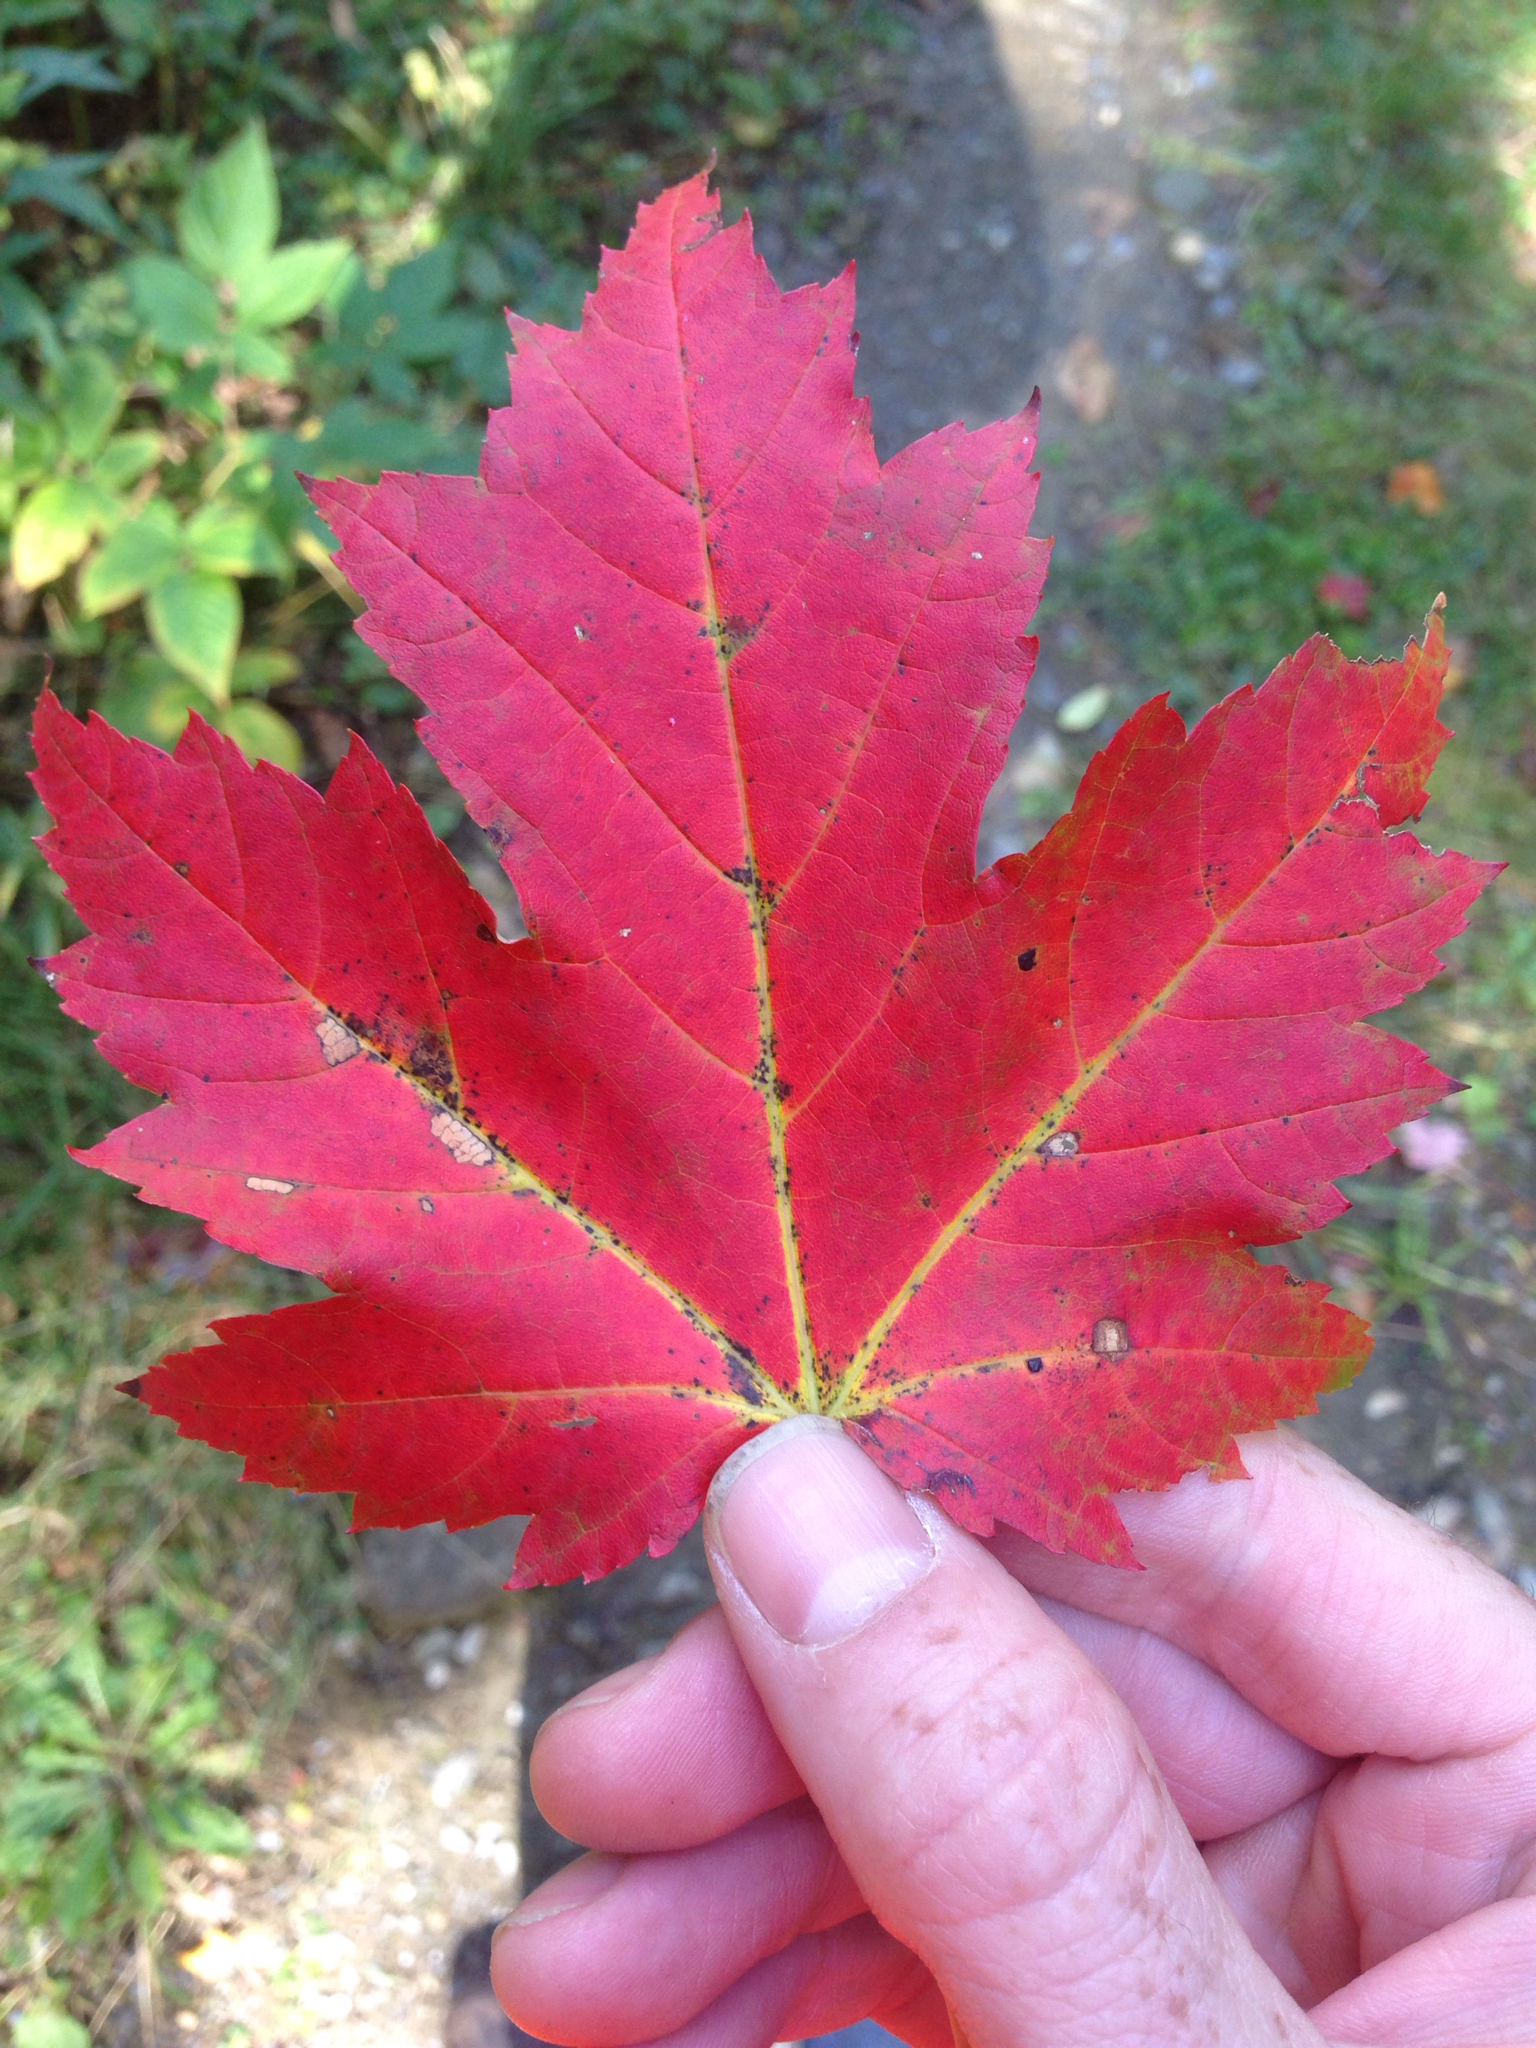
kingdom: Plantae
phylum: Tracheophyta
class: Magnoliopsida
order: Sapindales
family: Sapindaceae
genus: Acer
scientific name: Acer rubrum
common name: Red maple
